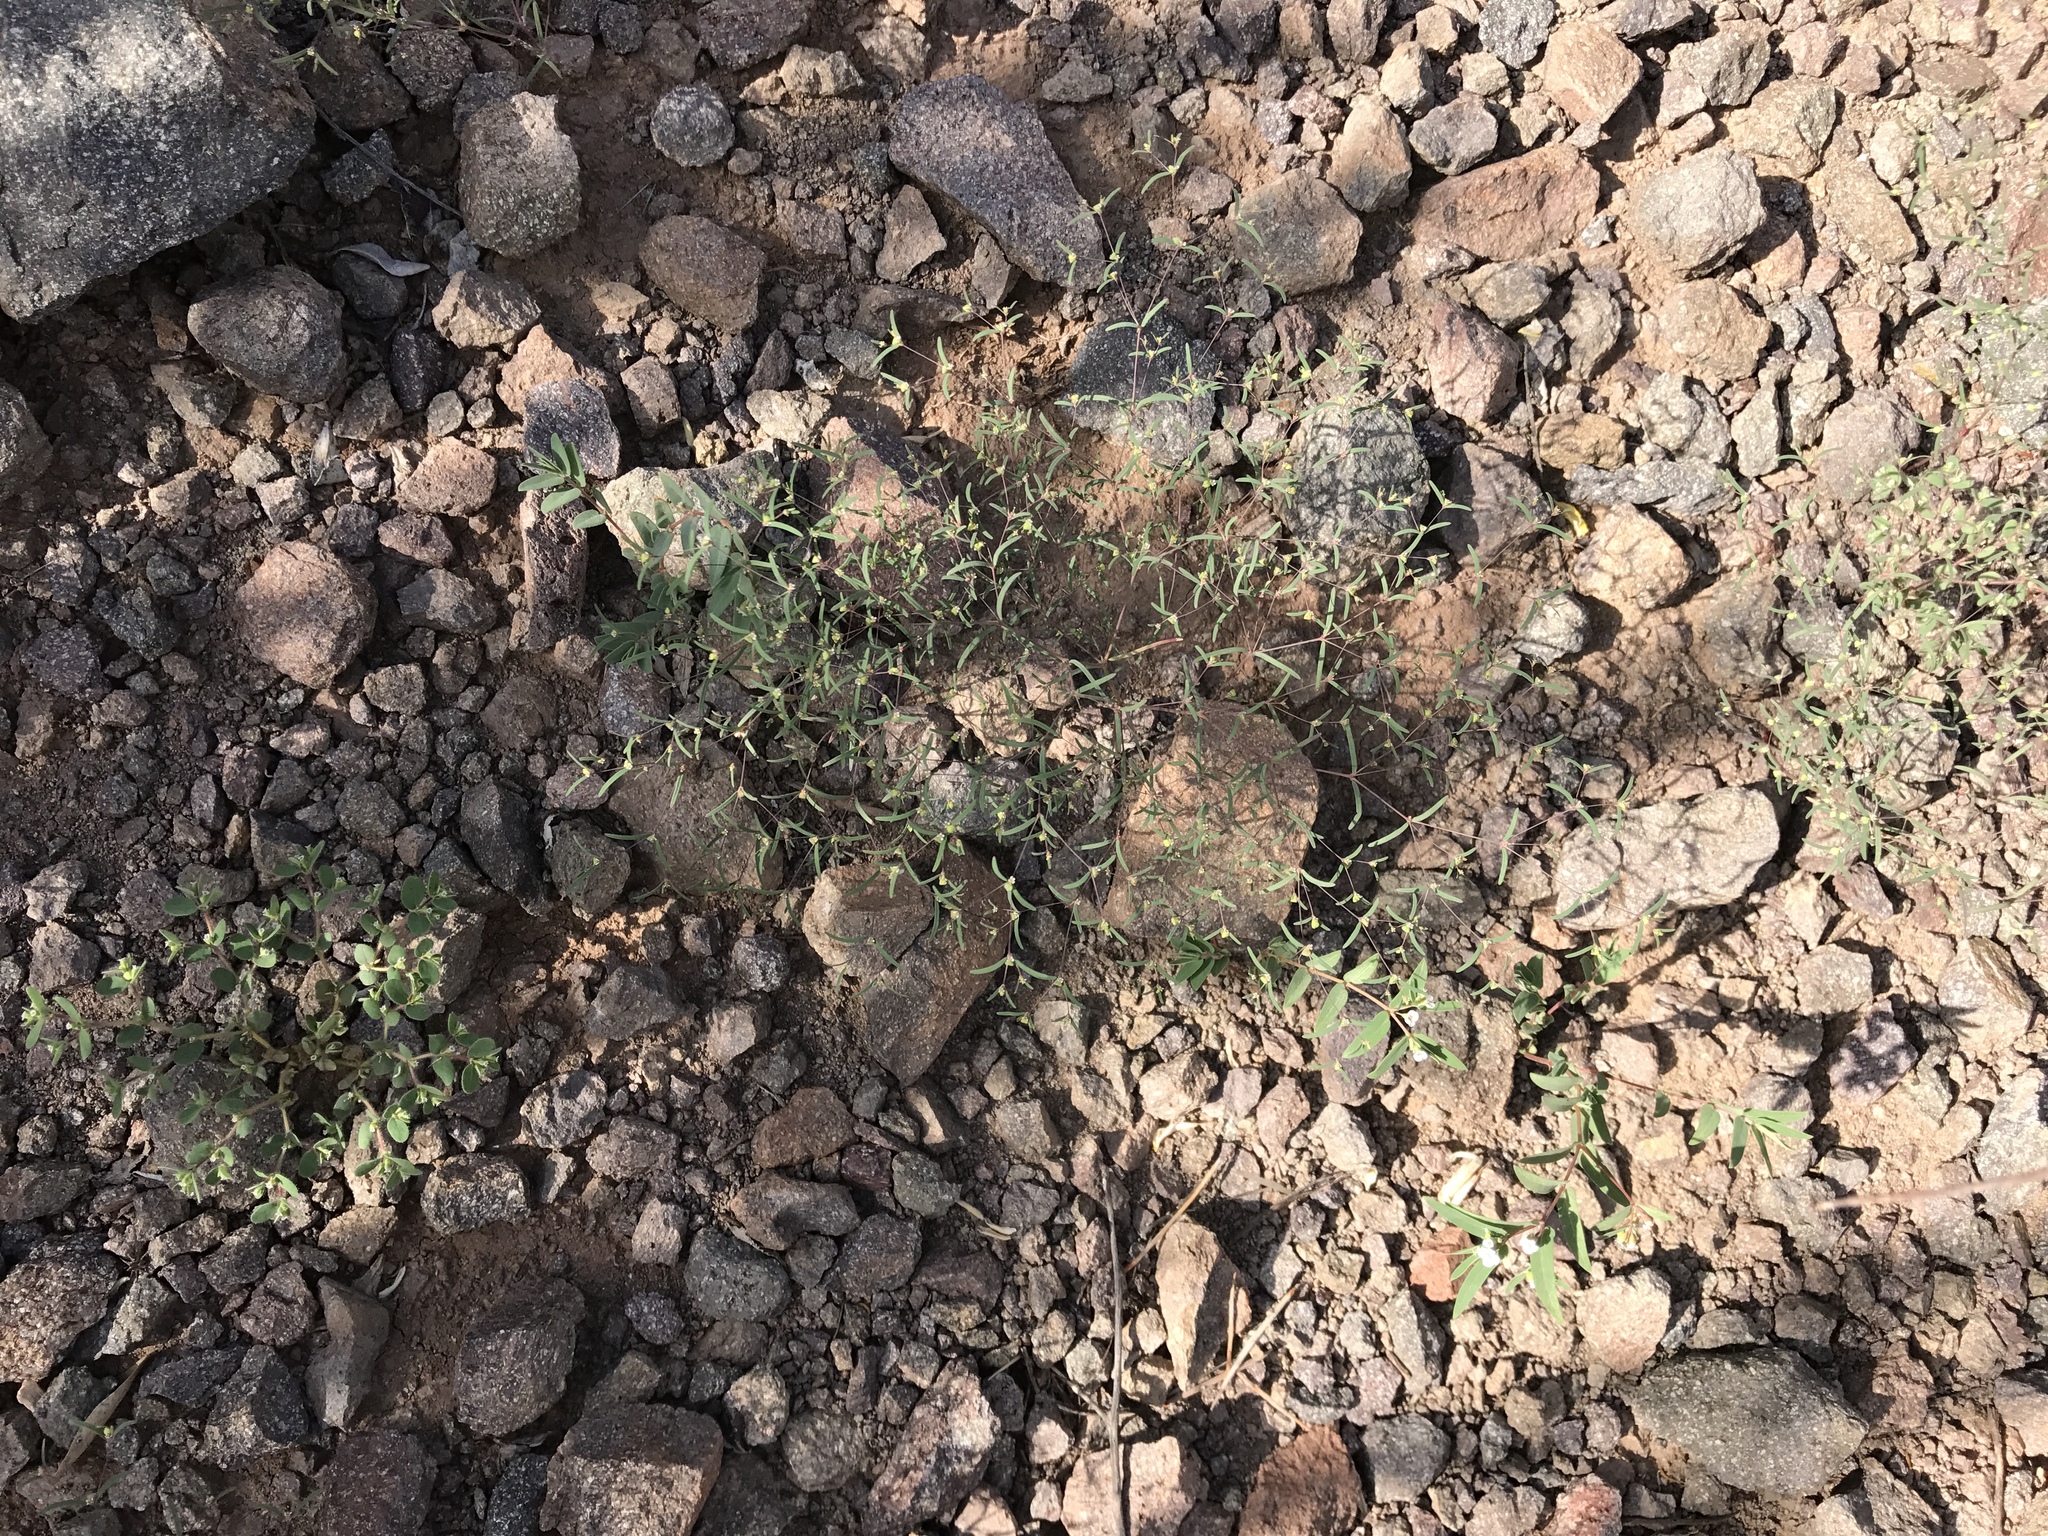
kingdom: Plantae
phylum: Tracheophyta
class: Magnoliopsida
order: Malpighiales
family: Euphorbiaceae
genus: Euphorbia
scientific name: Euphorbia gracillima
